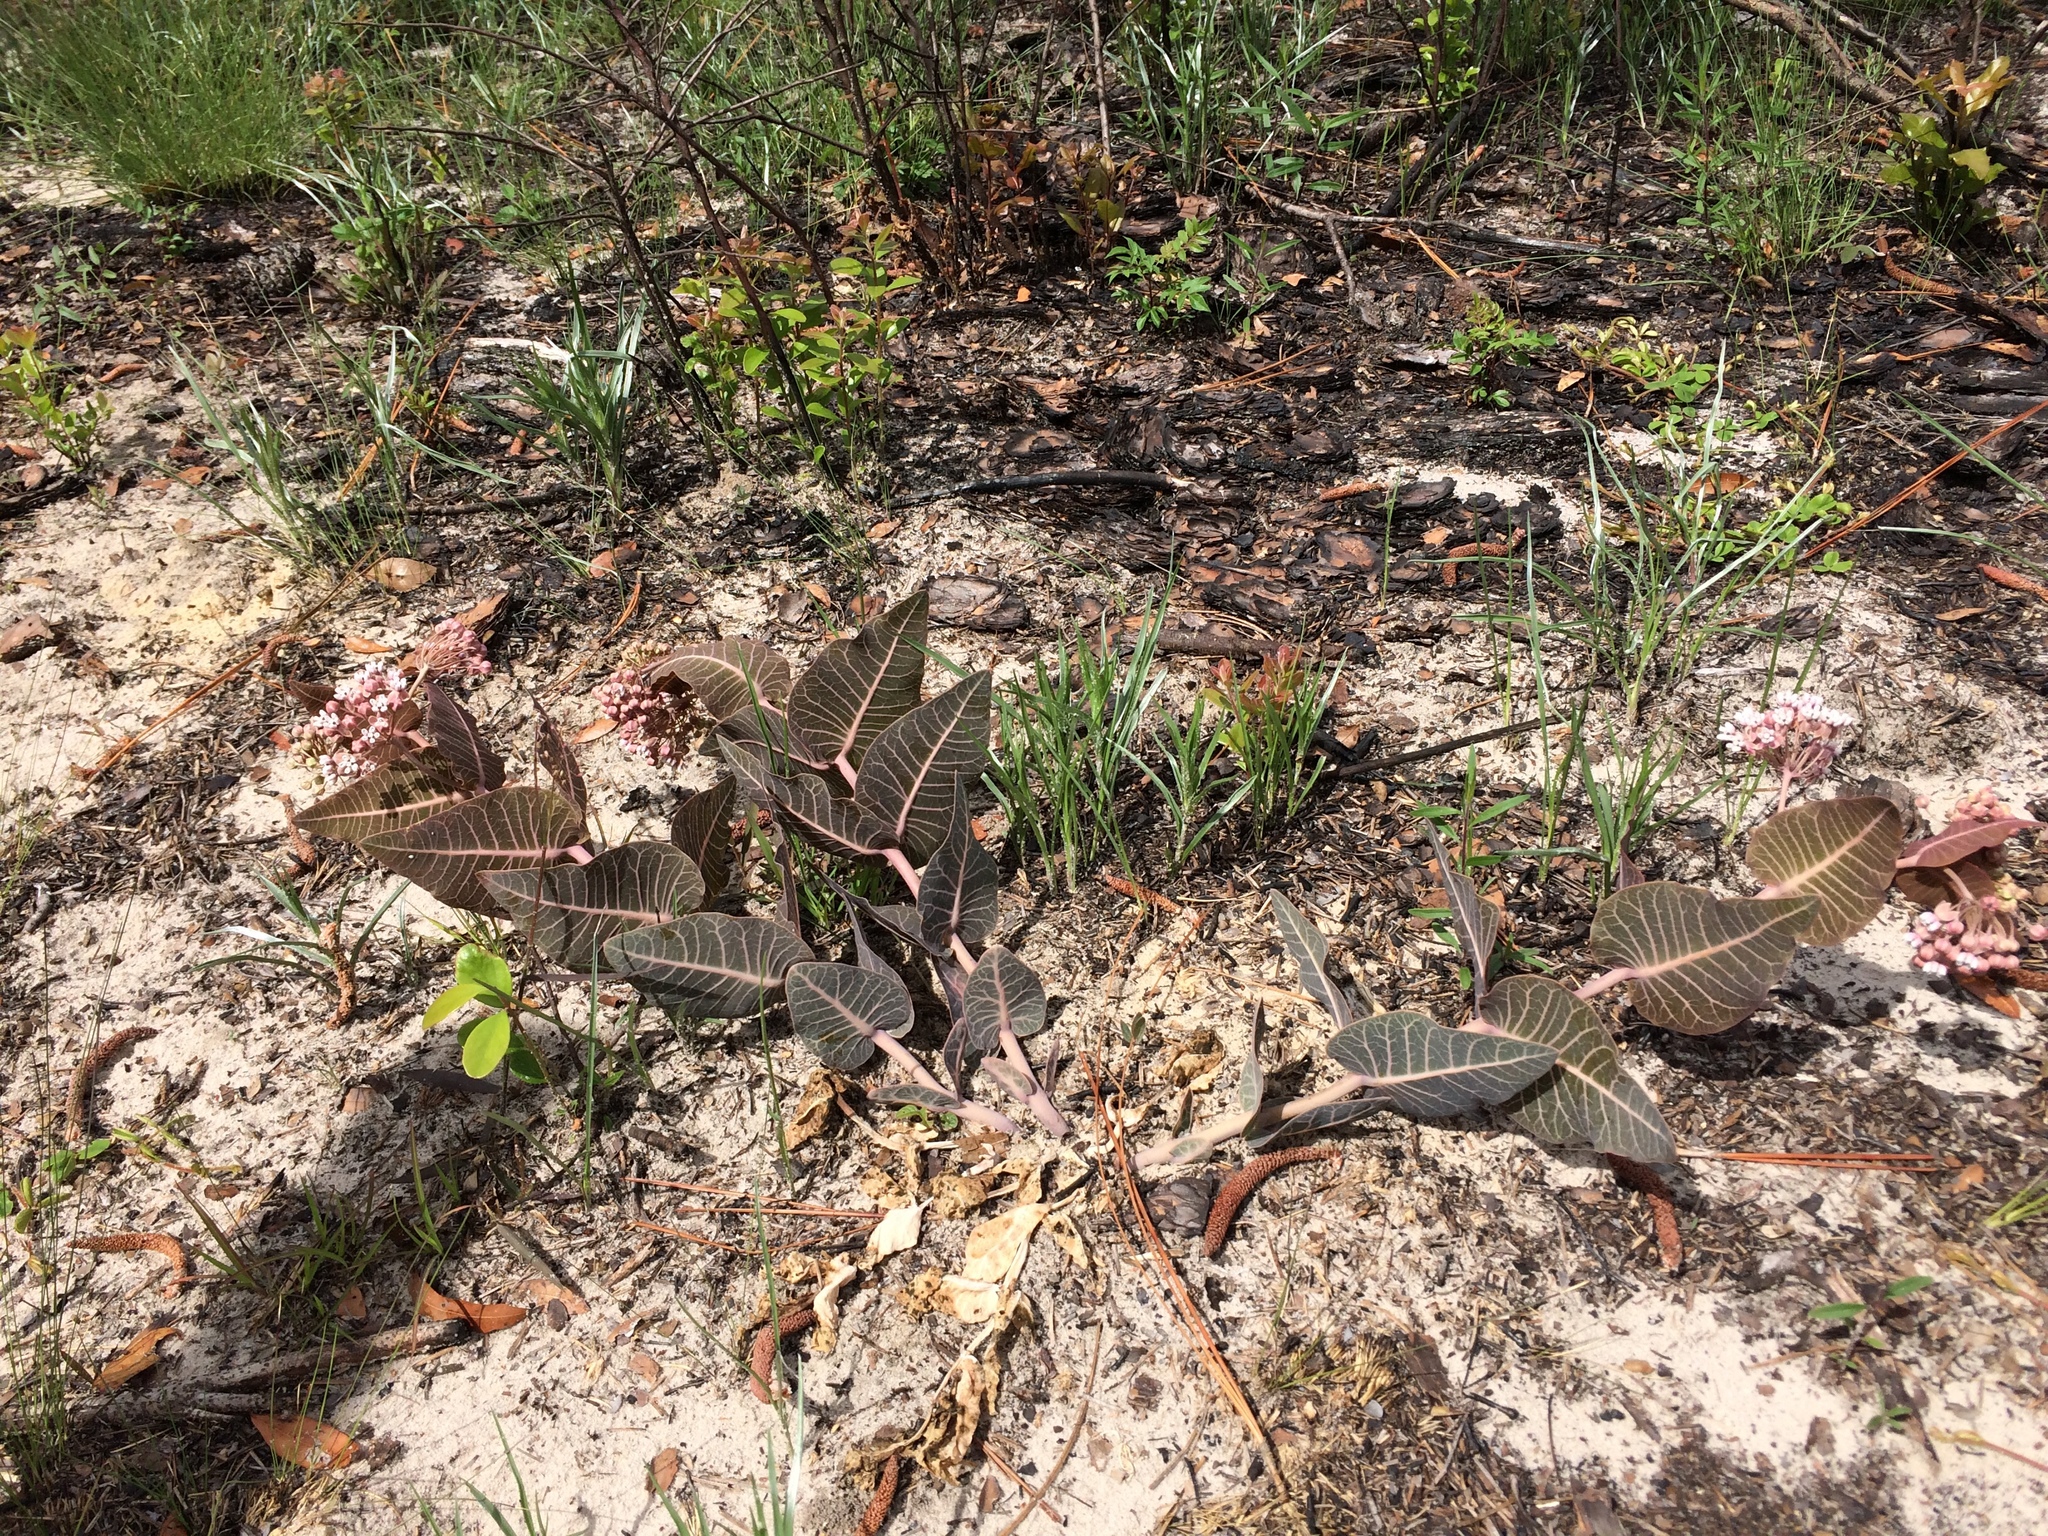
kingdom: Plantae
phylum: Tracheophyta
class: Magnoliopsida
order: Gentianales
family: Apocynaceae
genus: Asclepias
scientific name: Asclepias humistrata
